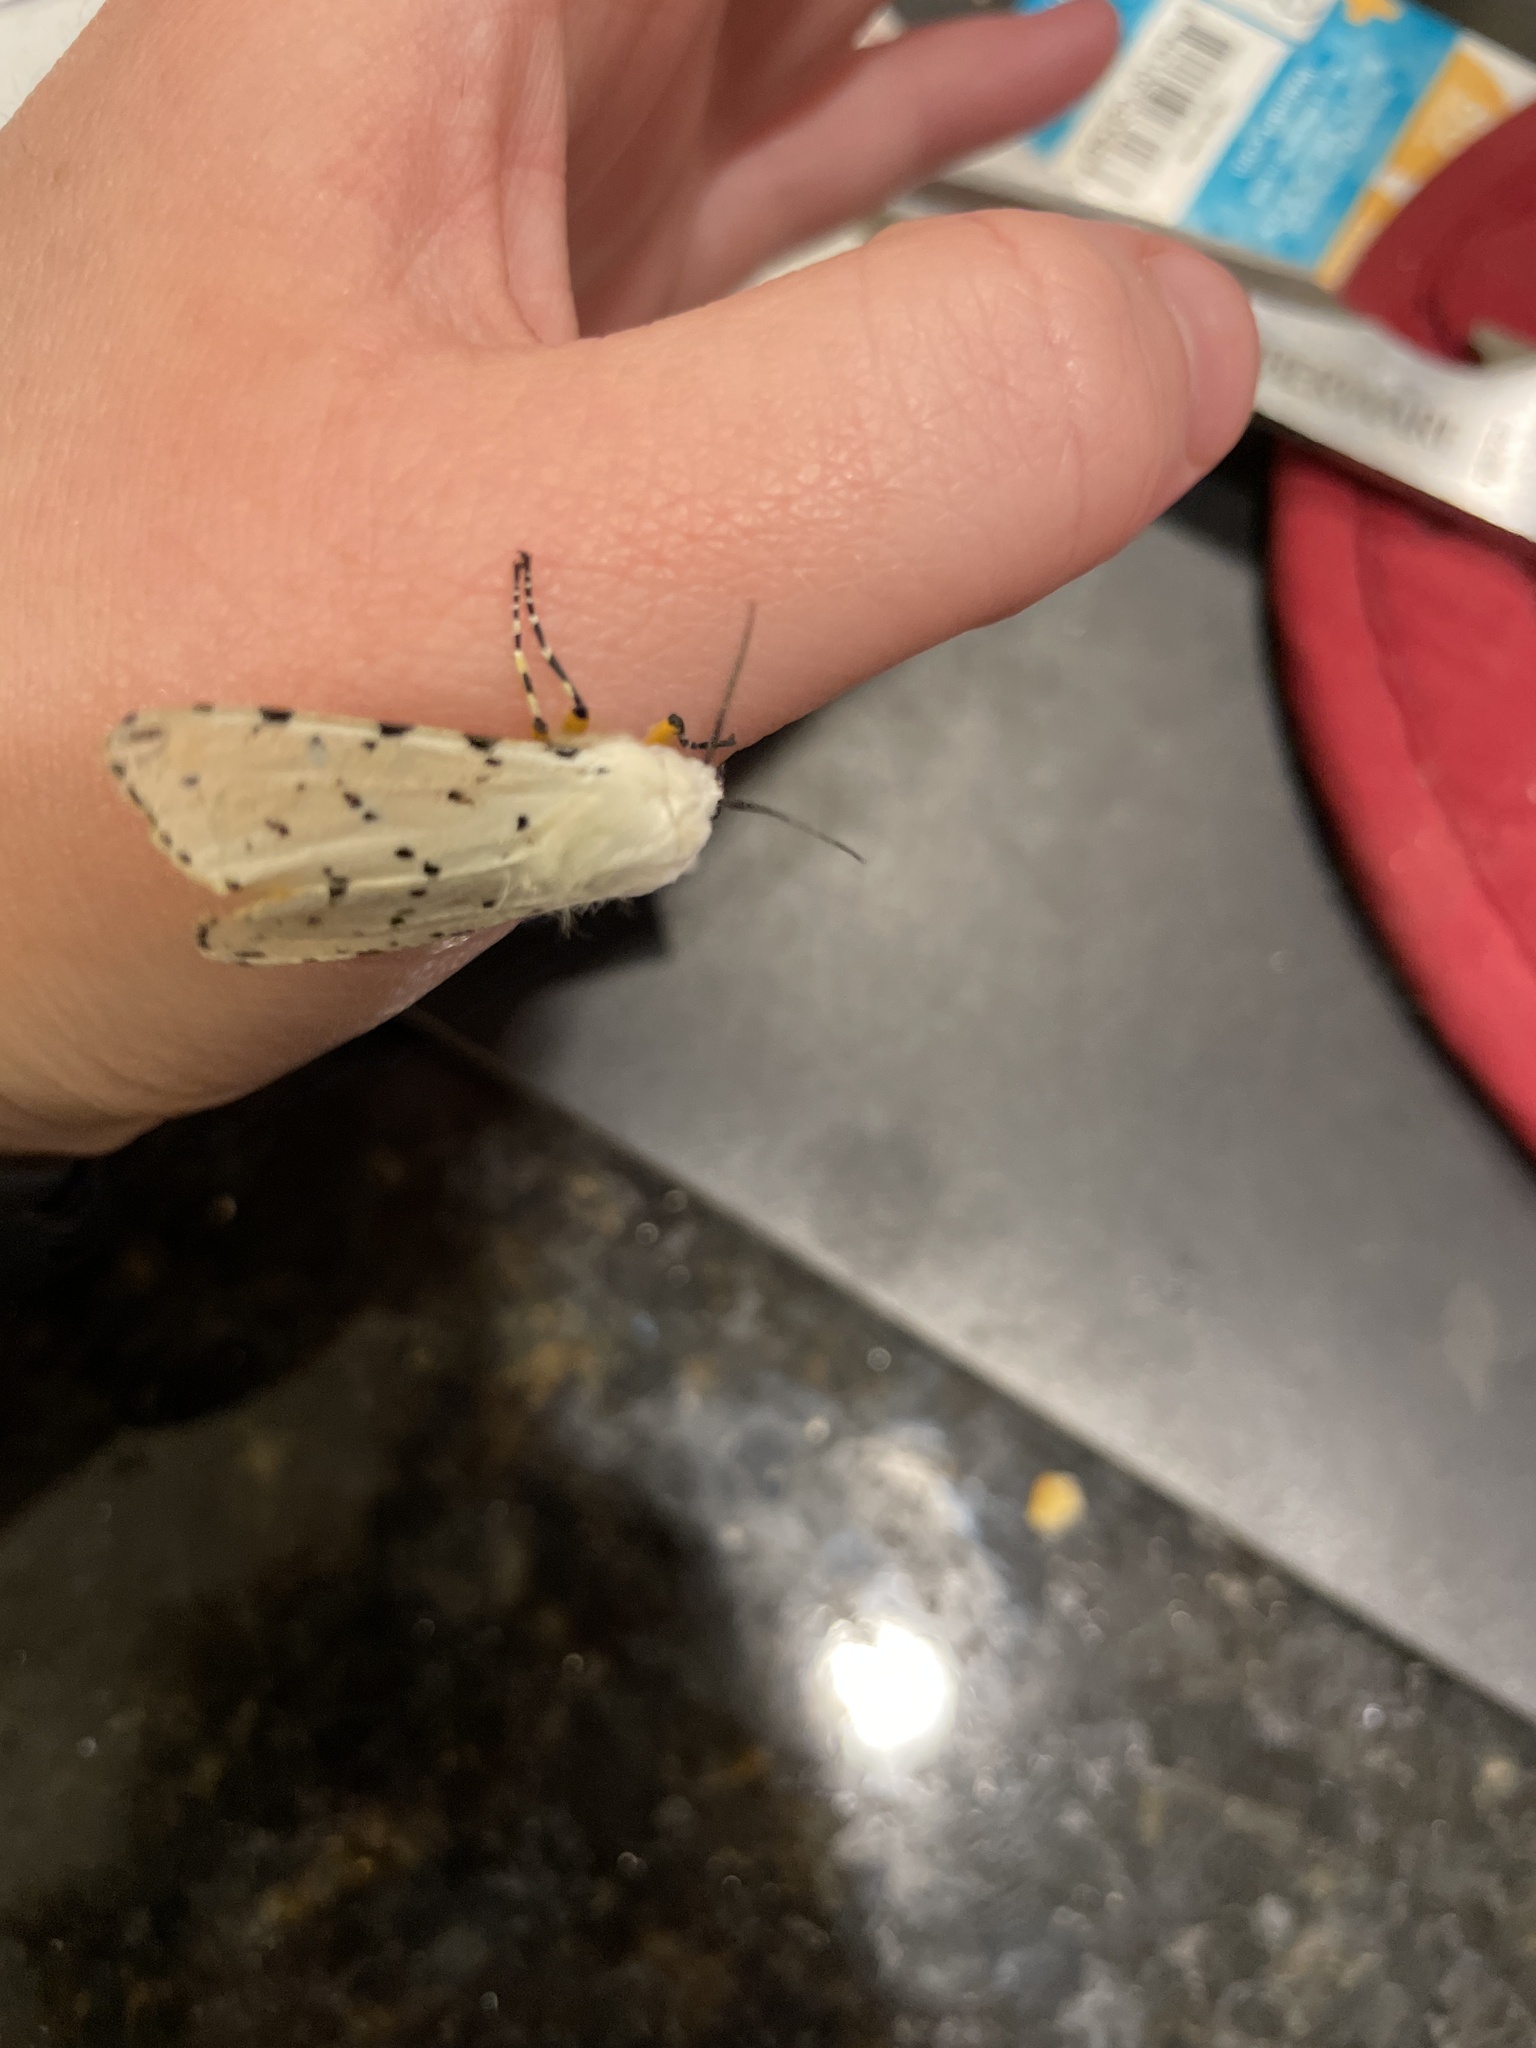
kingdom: Animalia
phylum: Arthropoda
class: Insecta
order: Lepidoptera
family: Erebidae
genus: Estigmene
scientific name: Estigmene acrea
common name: Salt marsh moth
